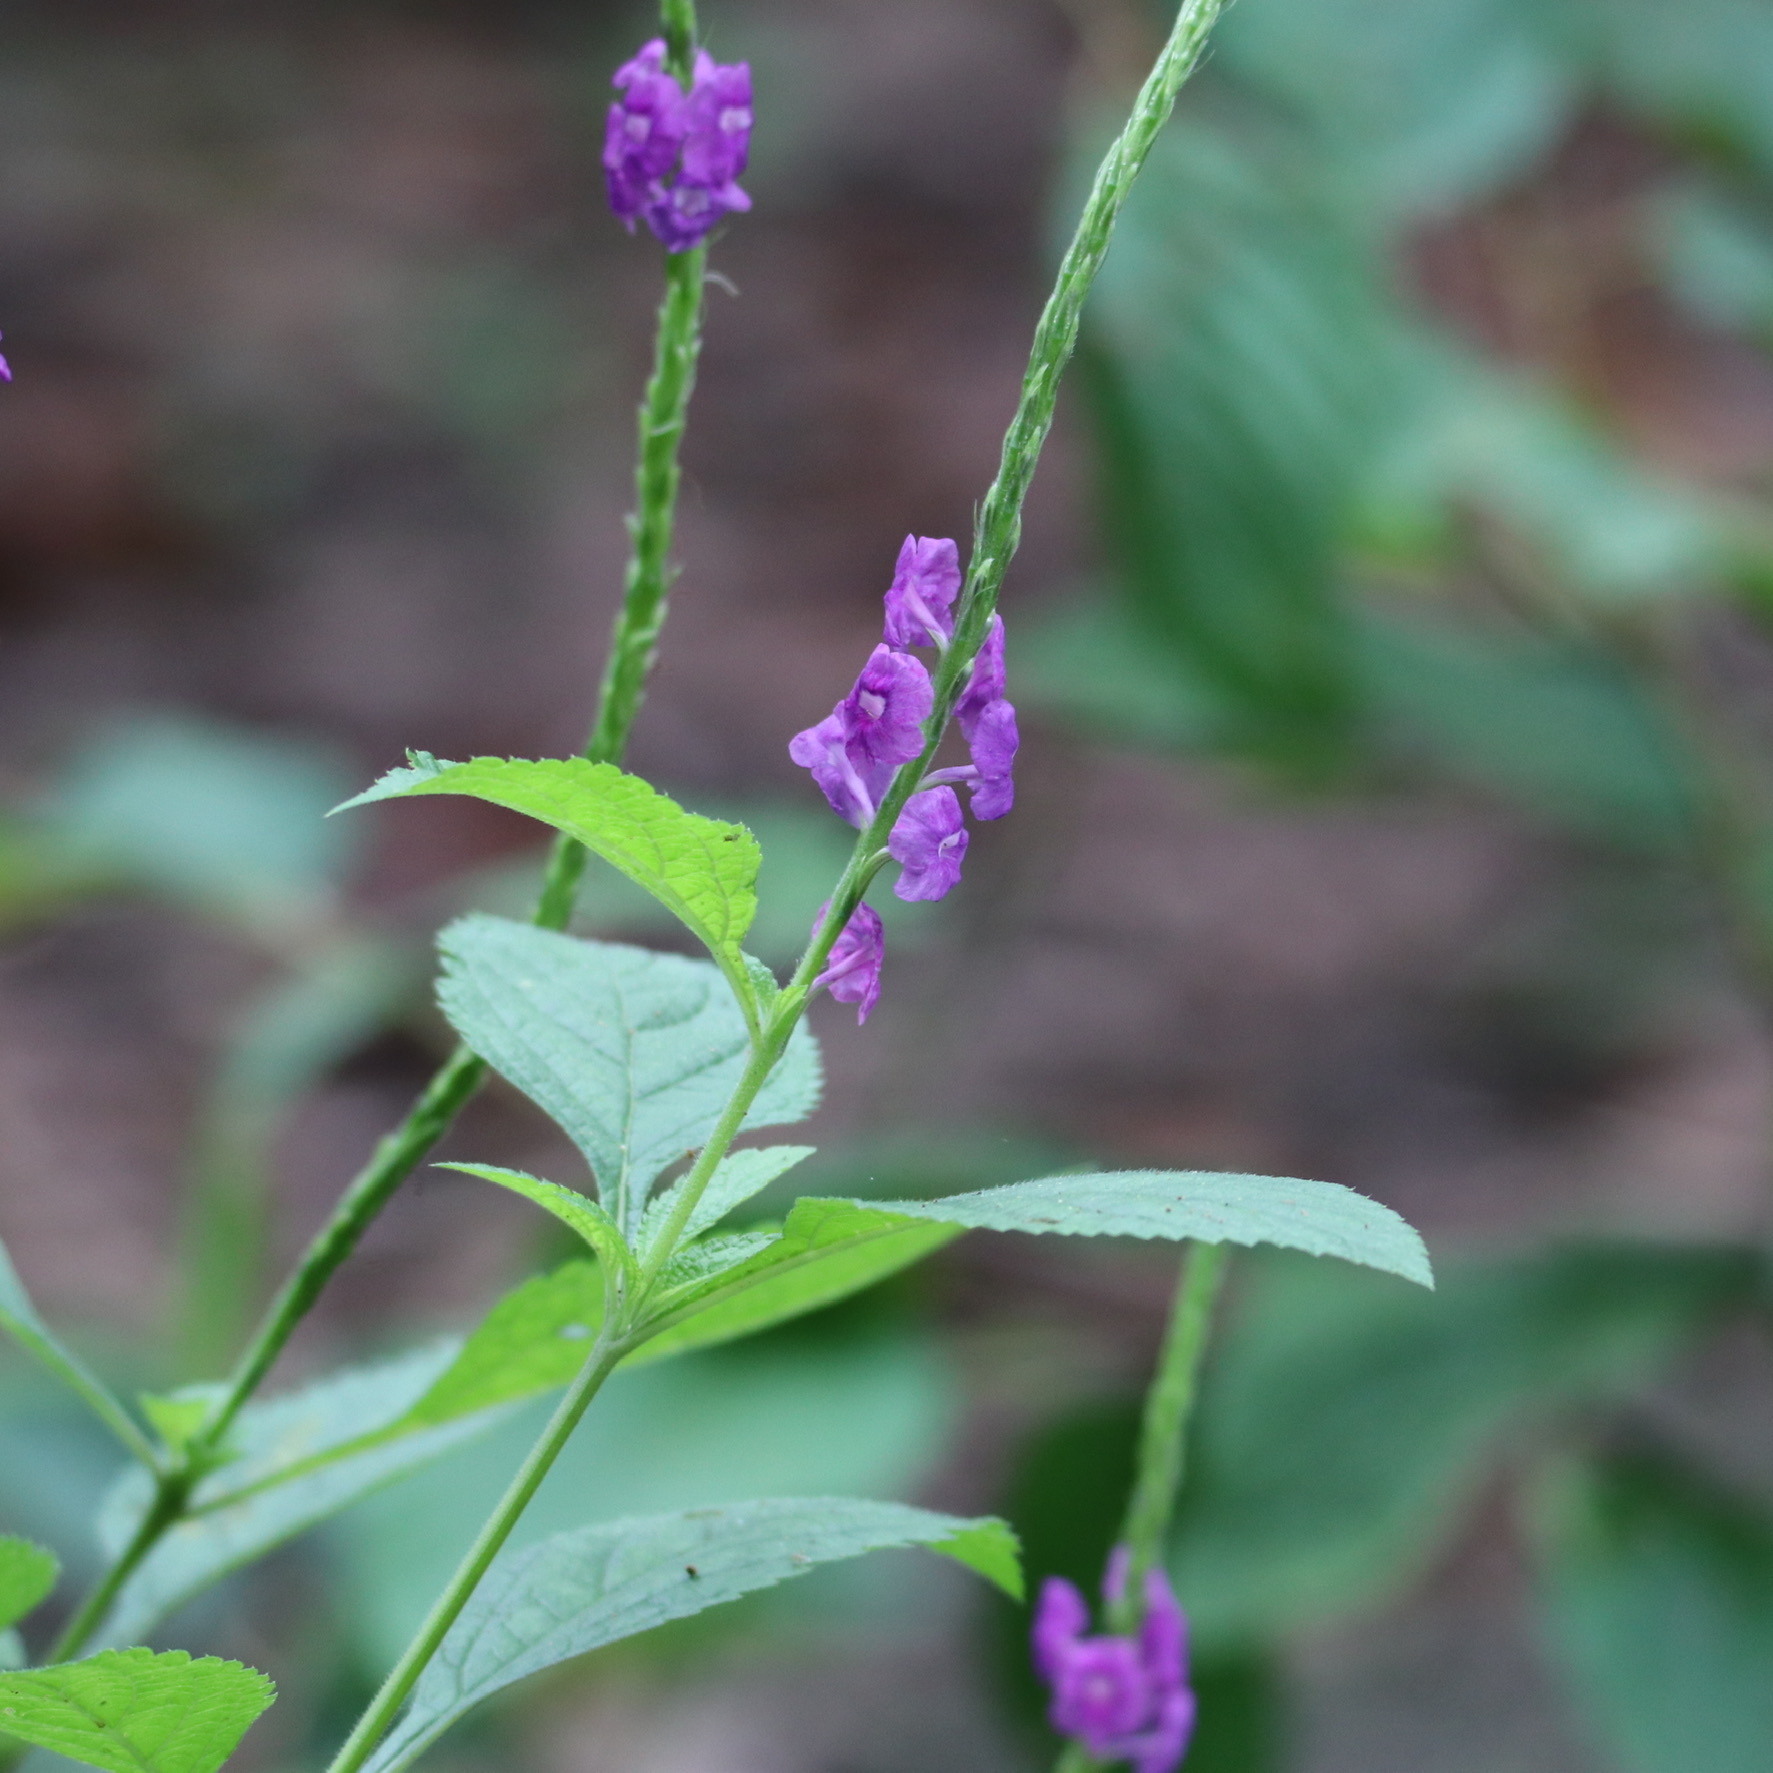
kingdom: Plantae
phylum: Tracheophyta
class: Magnoliopsida
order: Lamiales
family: Verbenaceae
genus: Stachytarpheta
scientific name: Stachytarpheta jamaicensis
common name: Light-blue snakeweed
